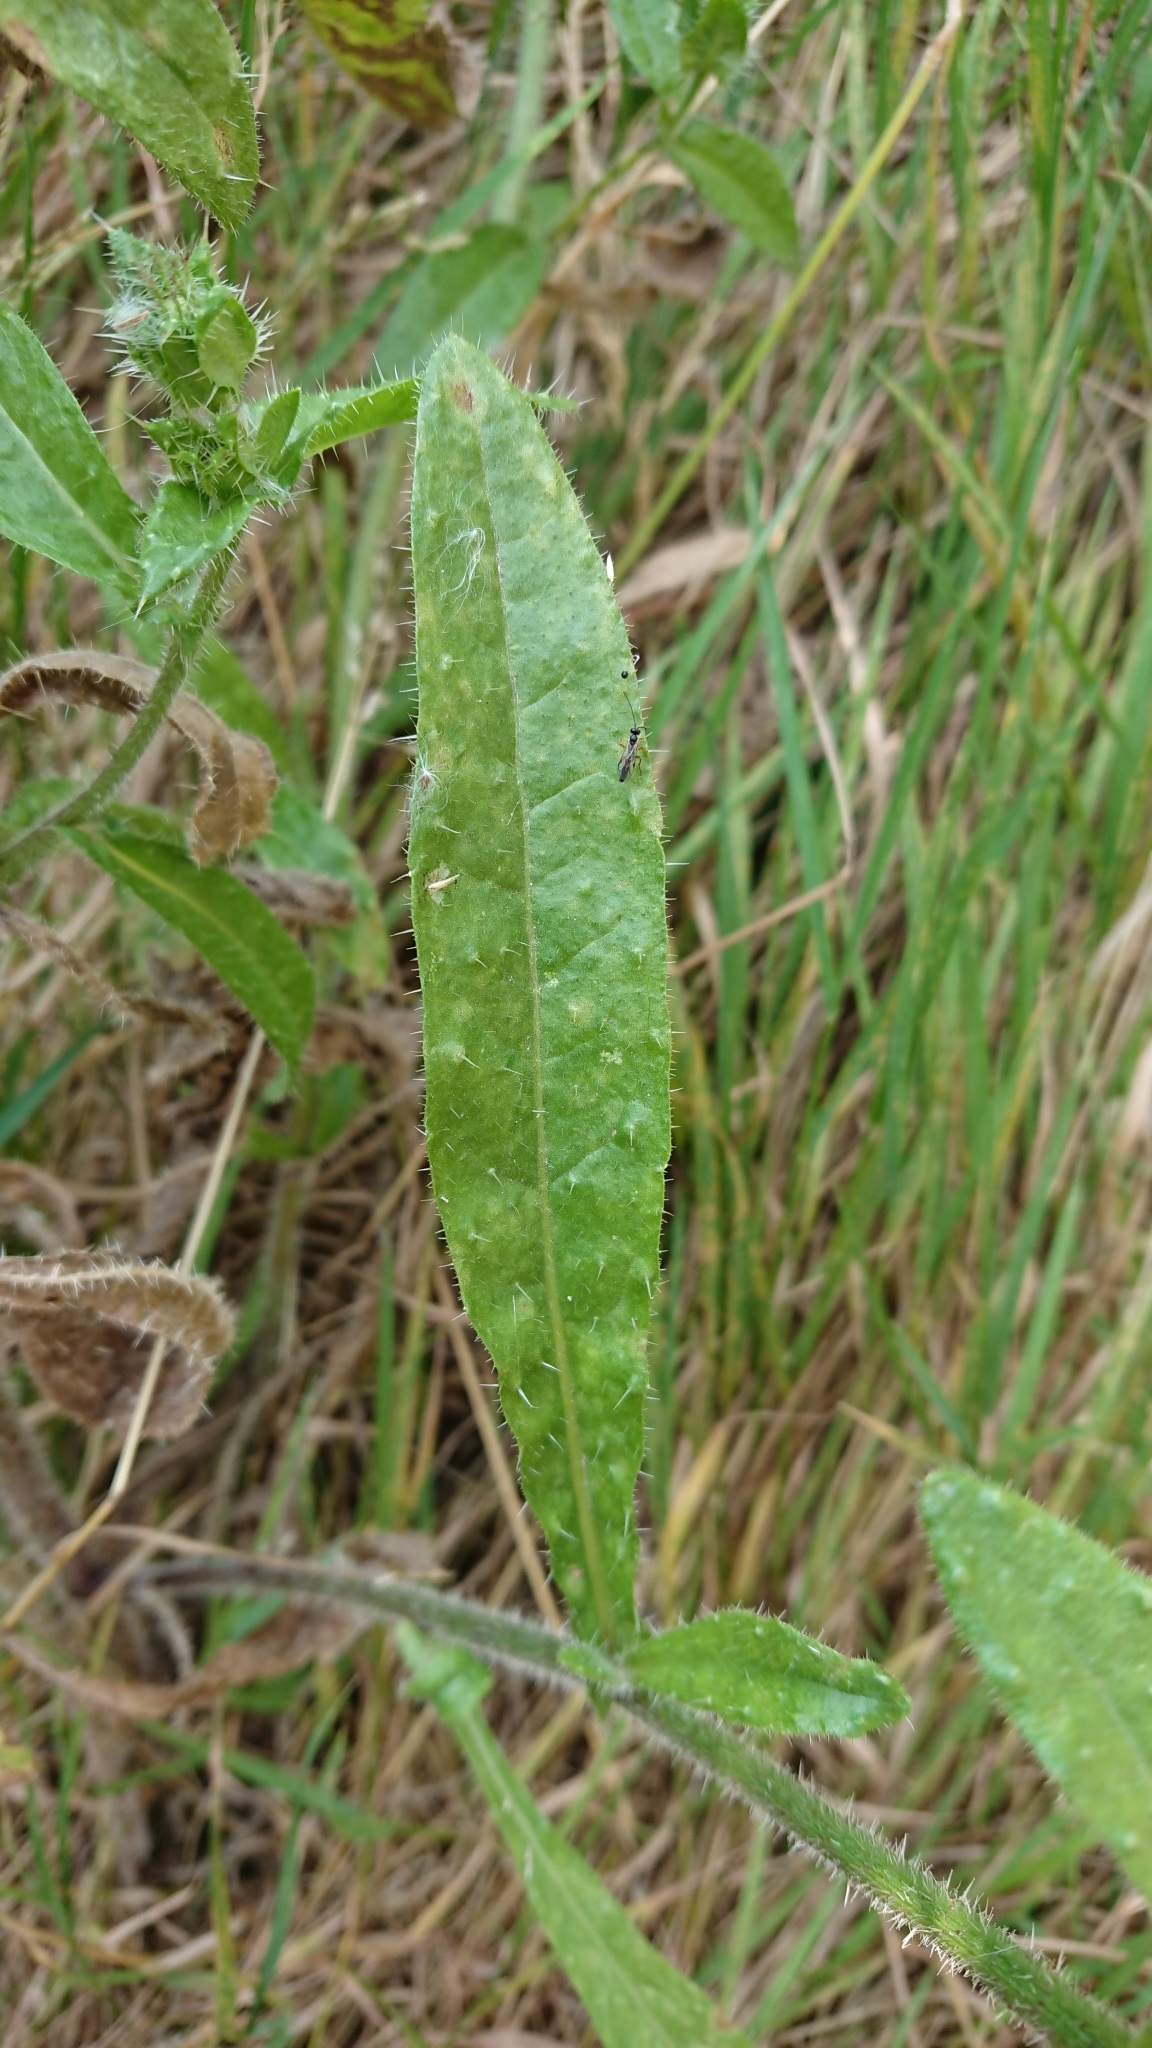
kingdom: Plantae
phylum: Tracheophyta
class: Magnoliopsida
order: Asterales
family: Asteraceae
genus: Helminthotheca
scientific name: Helminthotheca echioides
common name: Ox-tongue
